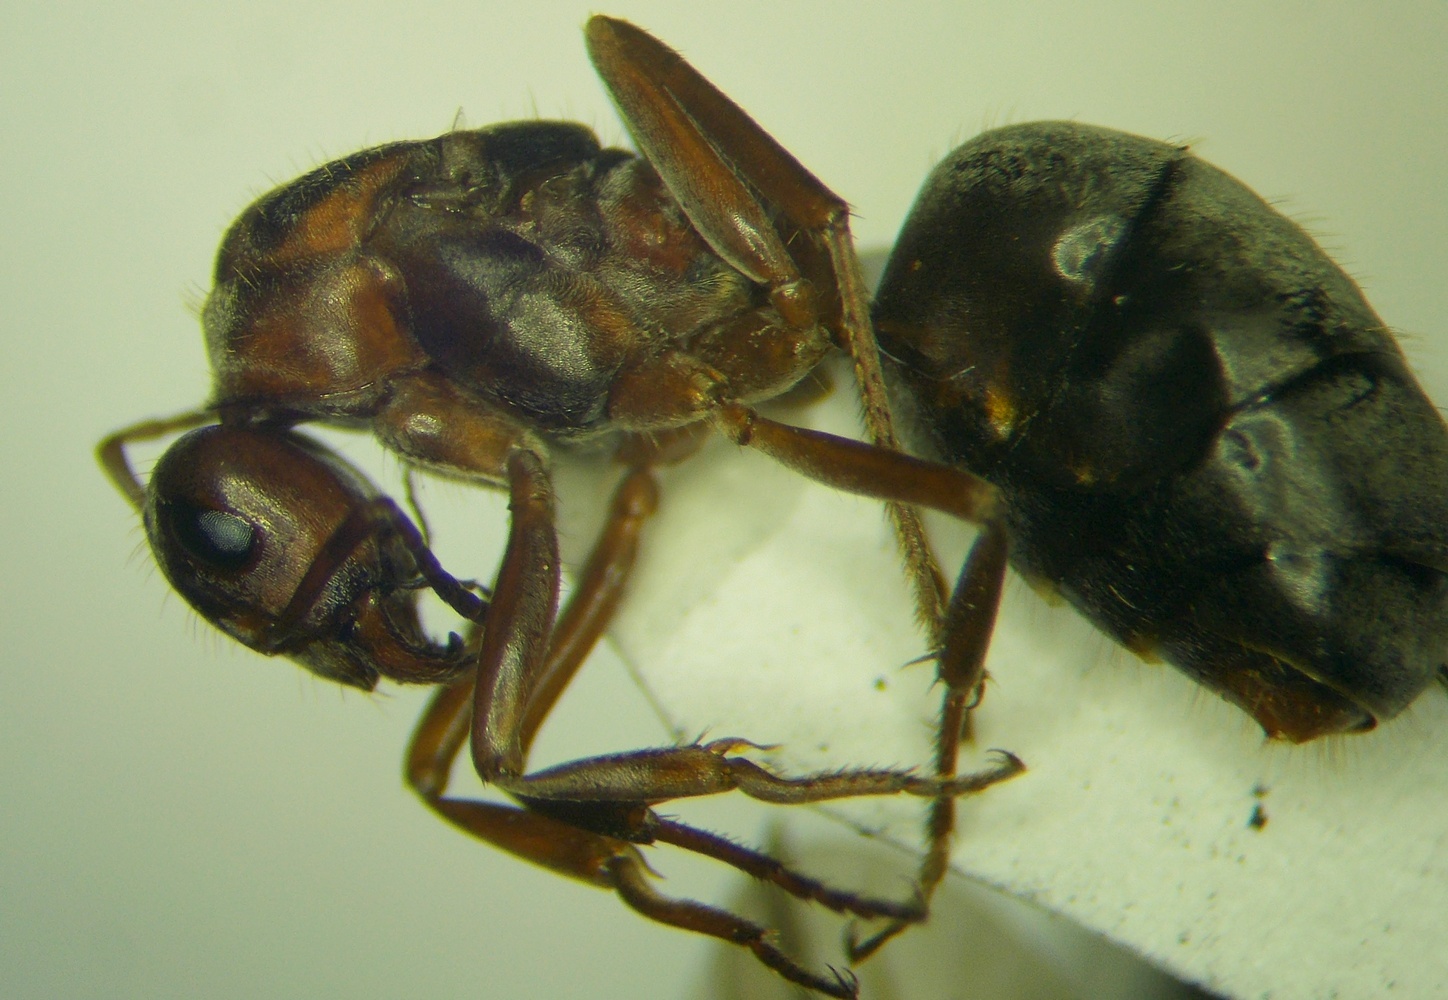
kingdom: Animalia
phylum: Arthropoda
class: Insecta
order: Hymenoptera
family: Formicidae
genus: Formica
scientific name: Formica subpilosa
